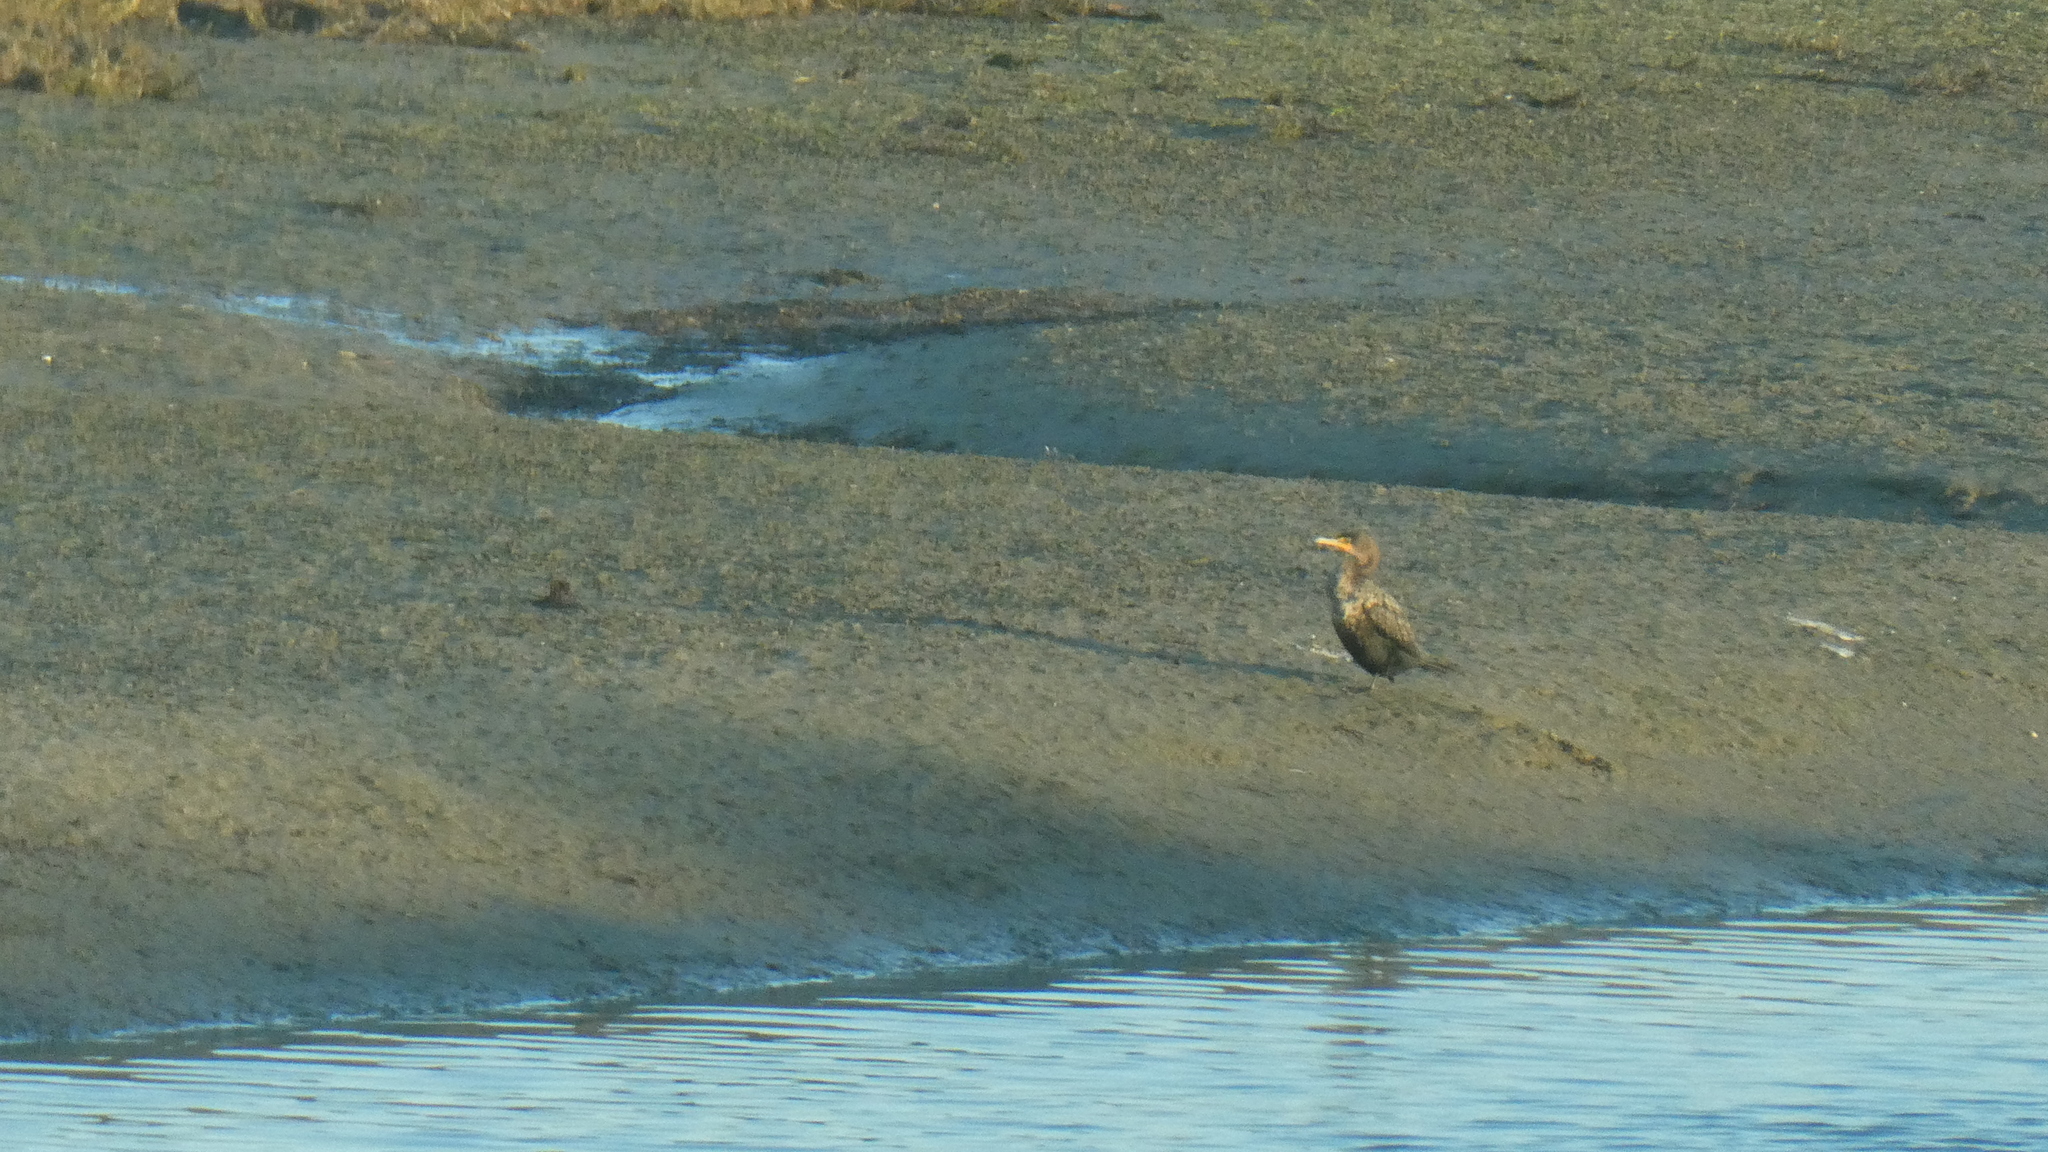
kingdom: Animalia
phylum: Chordata
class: Aves
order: Suliformes
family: Phalacrocoracidae
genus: Phalacrocorax
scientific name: Phalacrocorax auritus
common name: Double-crested cormorant
